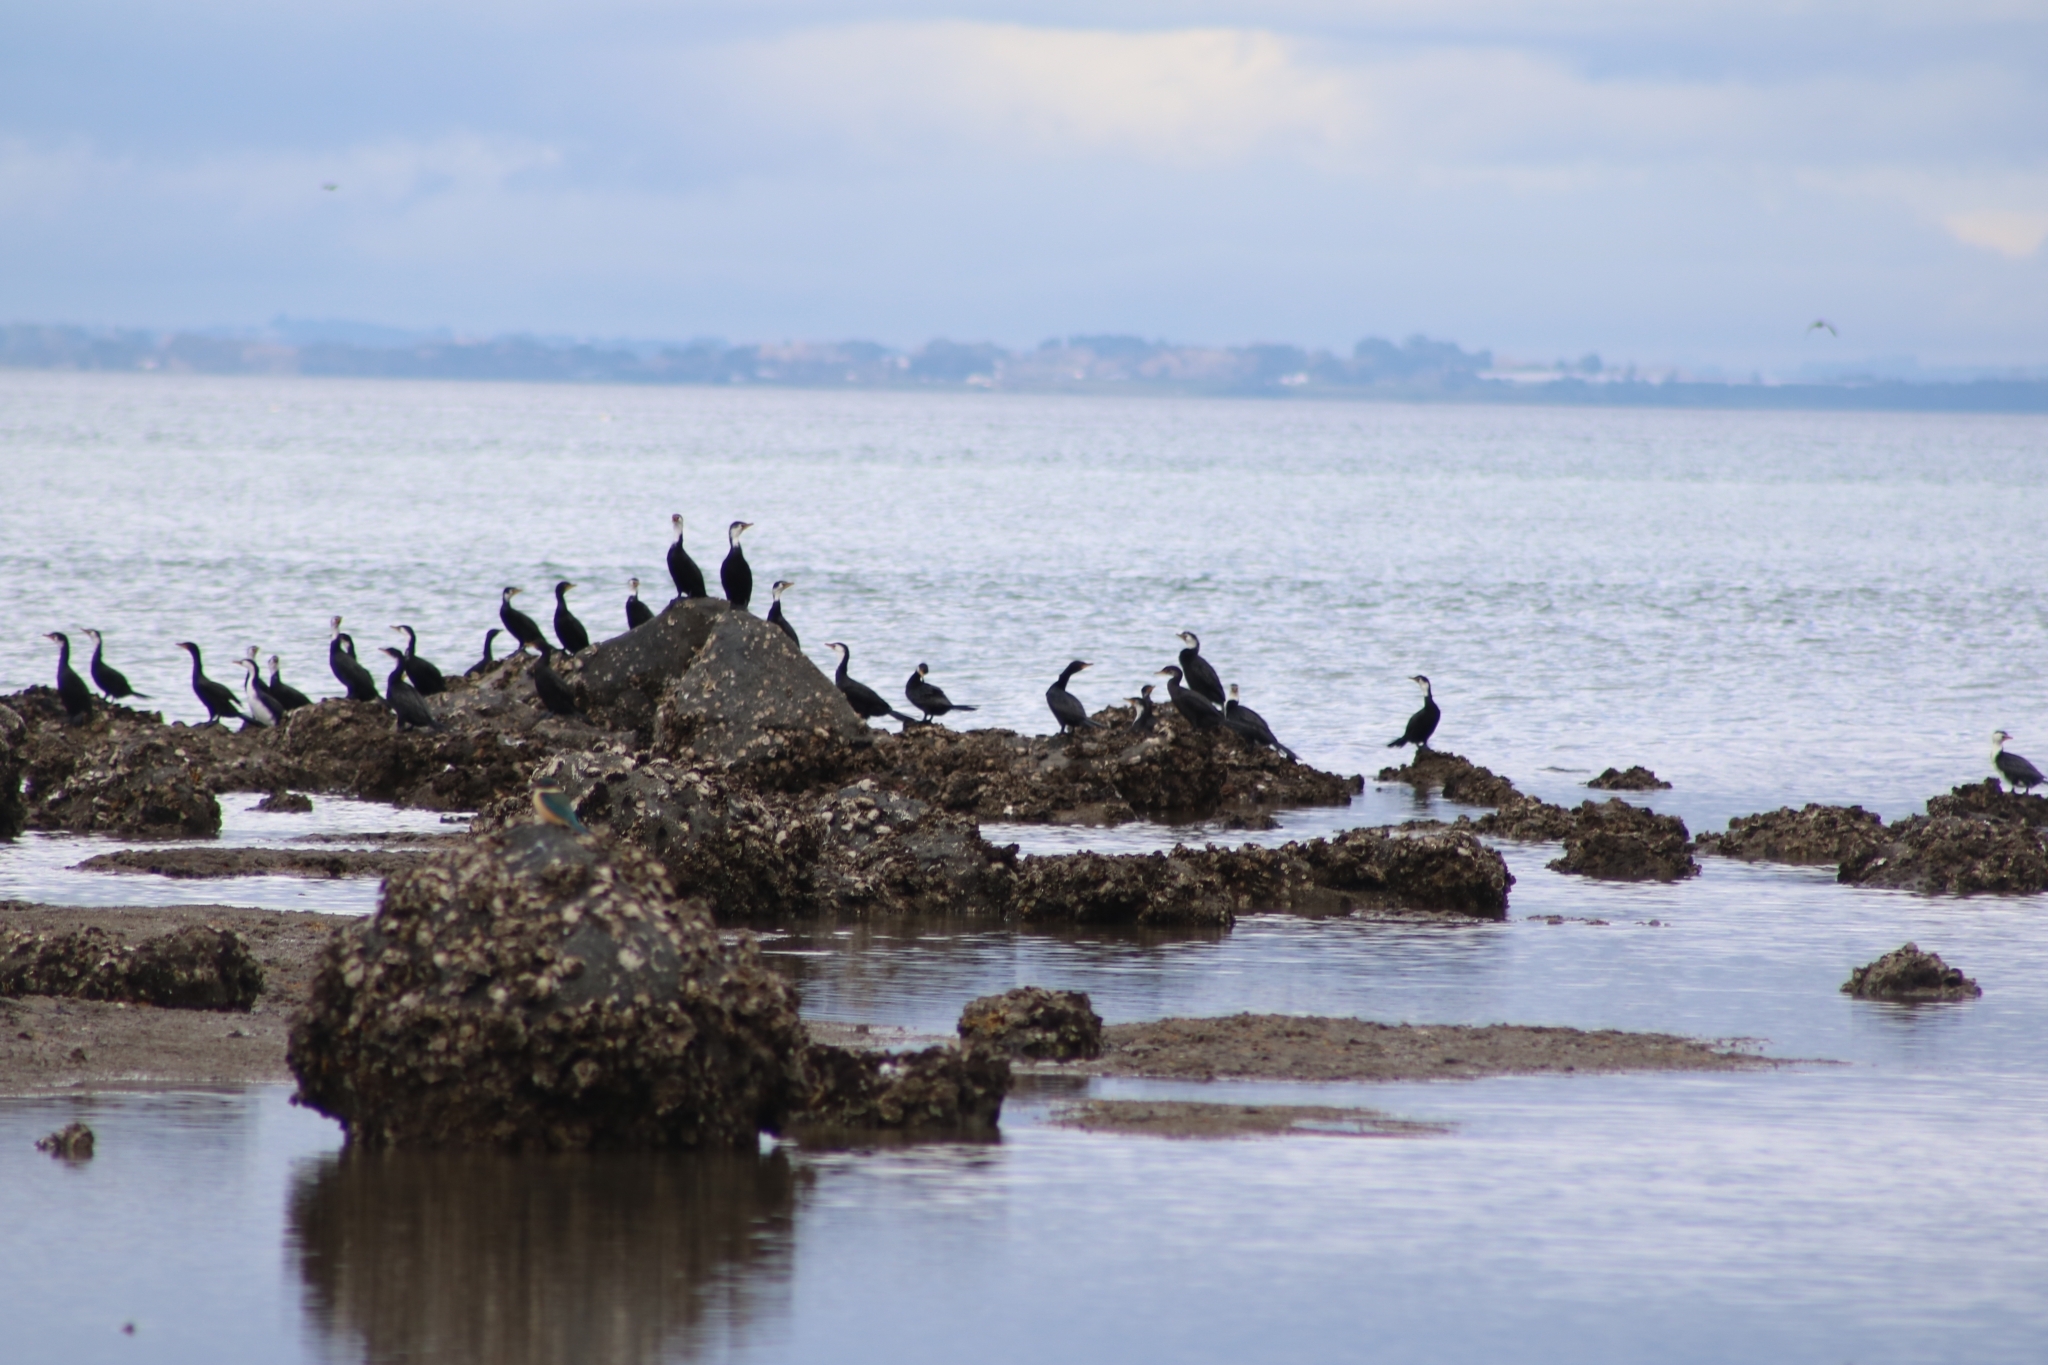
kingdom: Animalia
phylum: Chordata
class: Aves
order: Suliformes
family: Phalacrocoracidae
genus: Microcarbo
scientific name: Microcarbo melanoleucos
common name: Little pied cormorant
